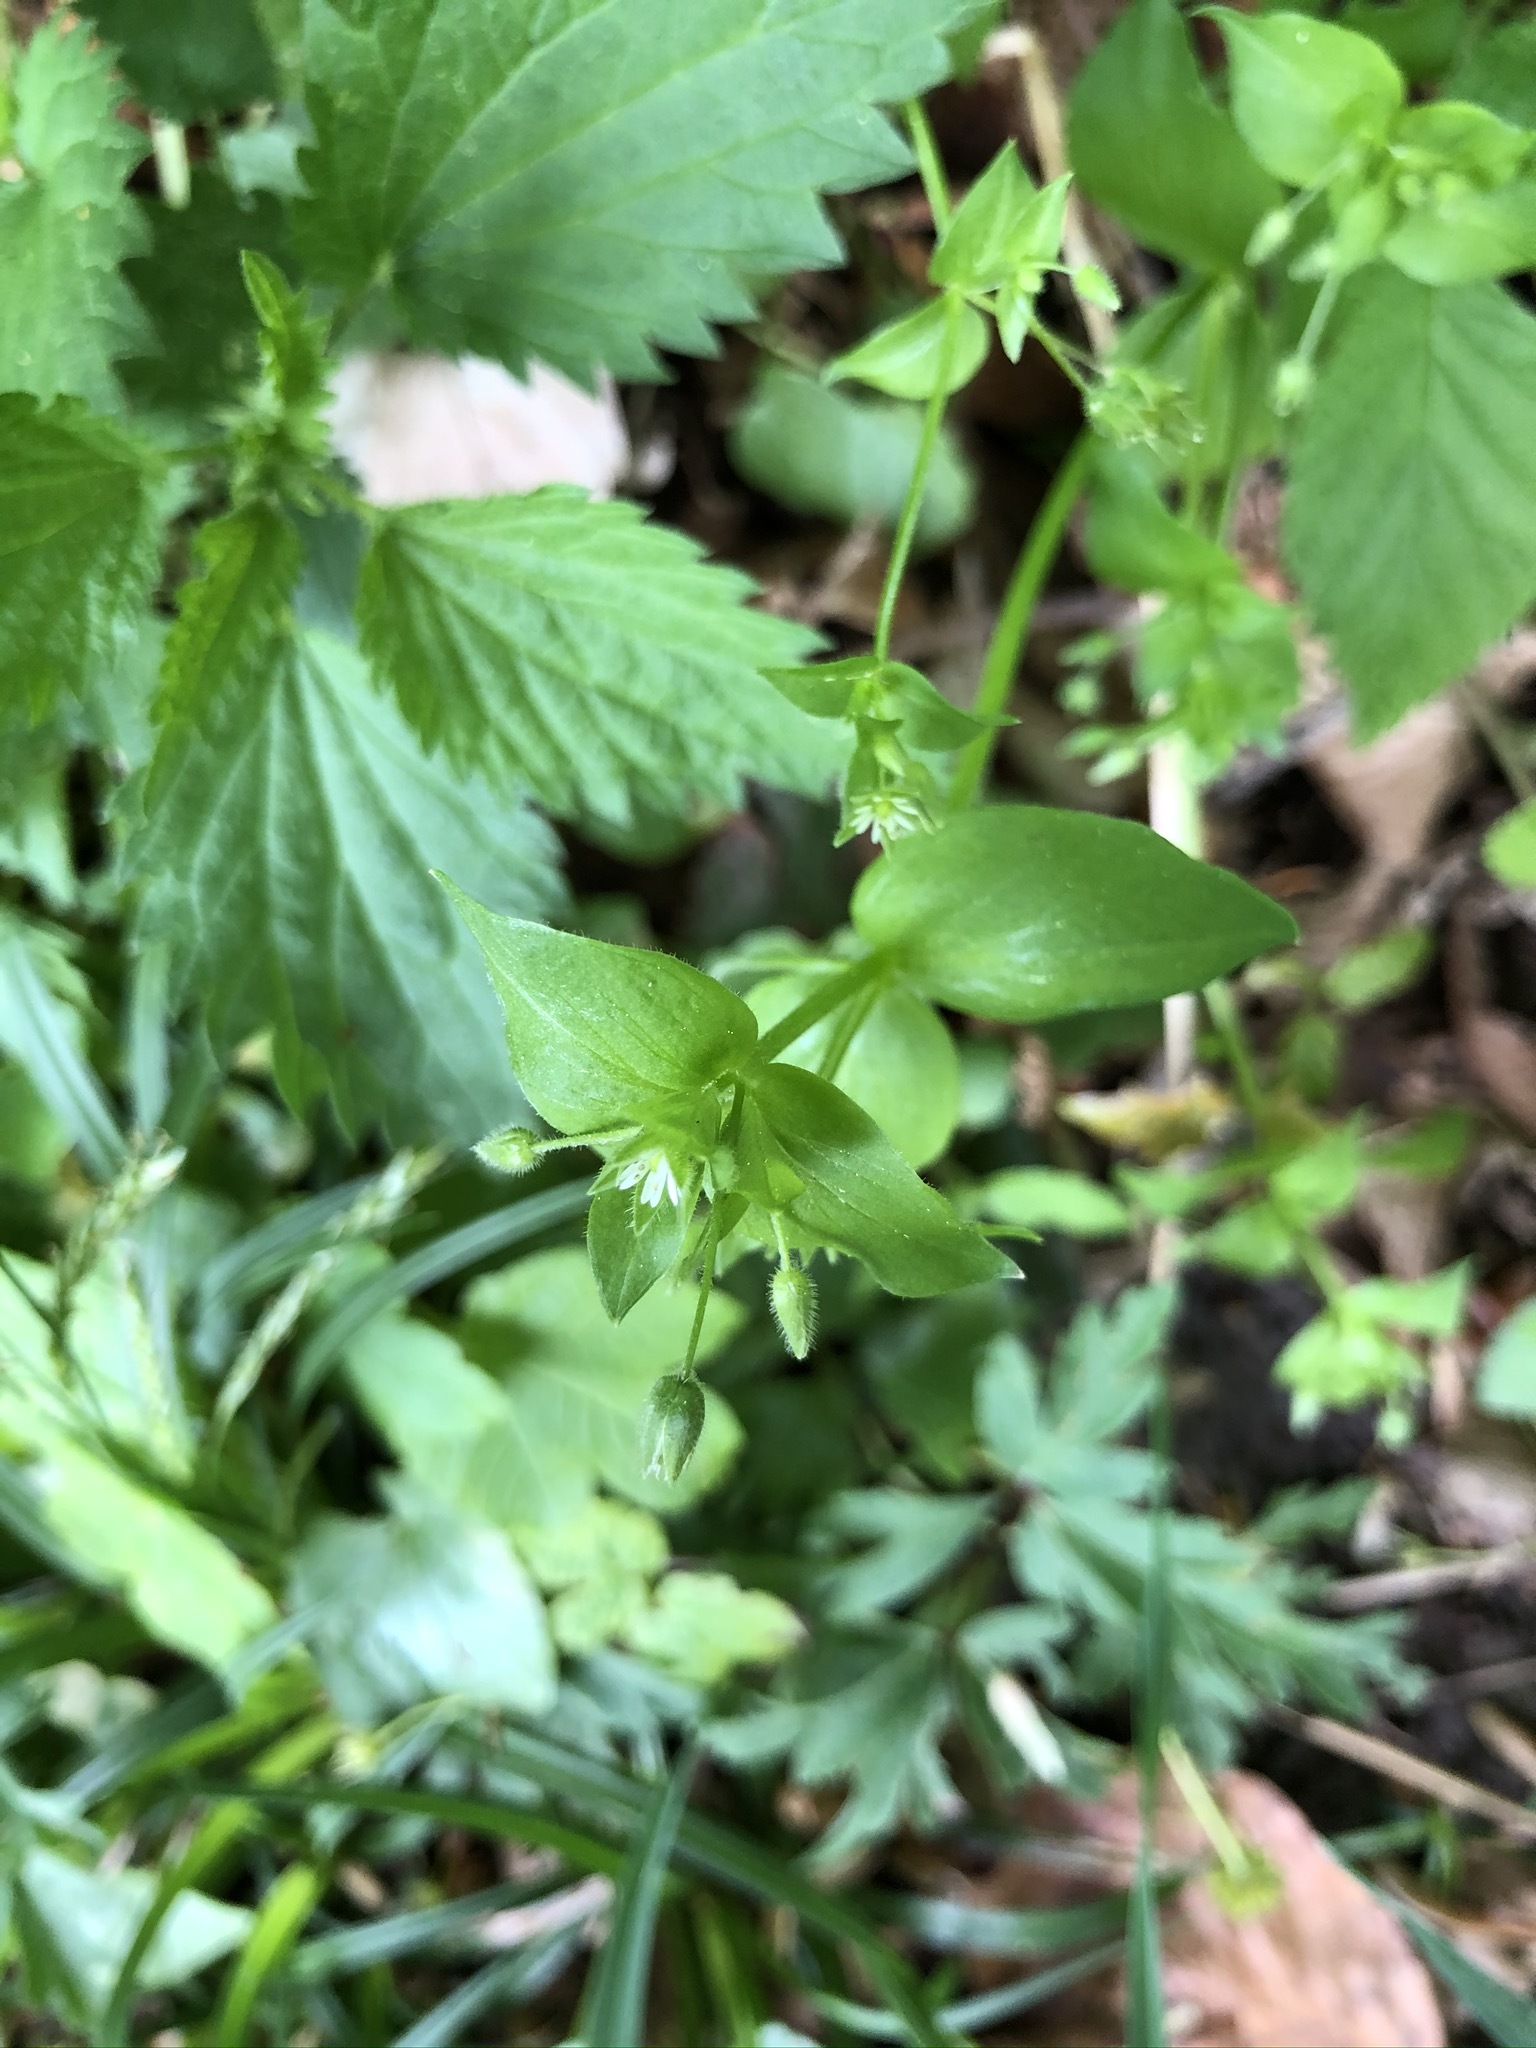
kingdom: Plantae
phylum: Tracheophyta
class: Magnoliopsida
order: Caryophyllales
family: Caryophyllaceae
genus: Stellaria
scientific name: Stellaria media
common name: Common chickweed
